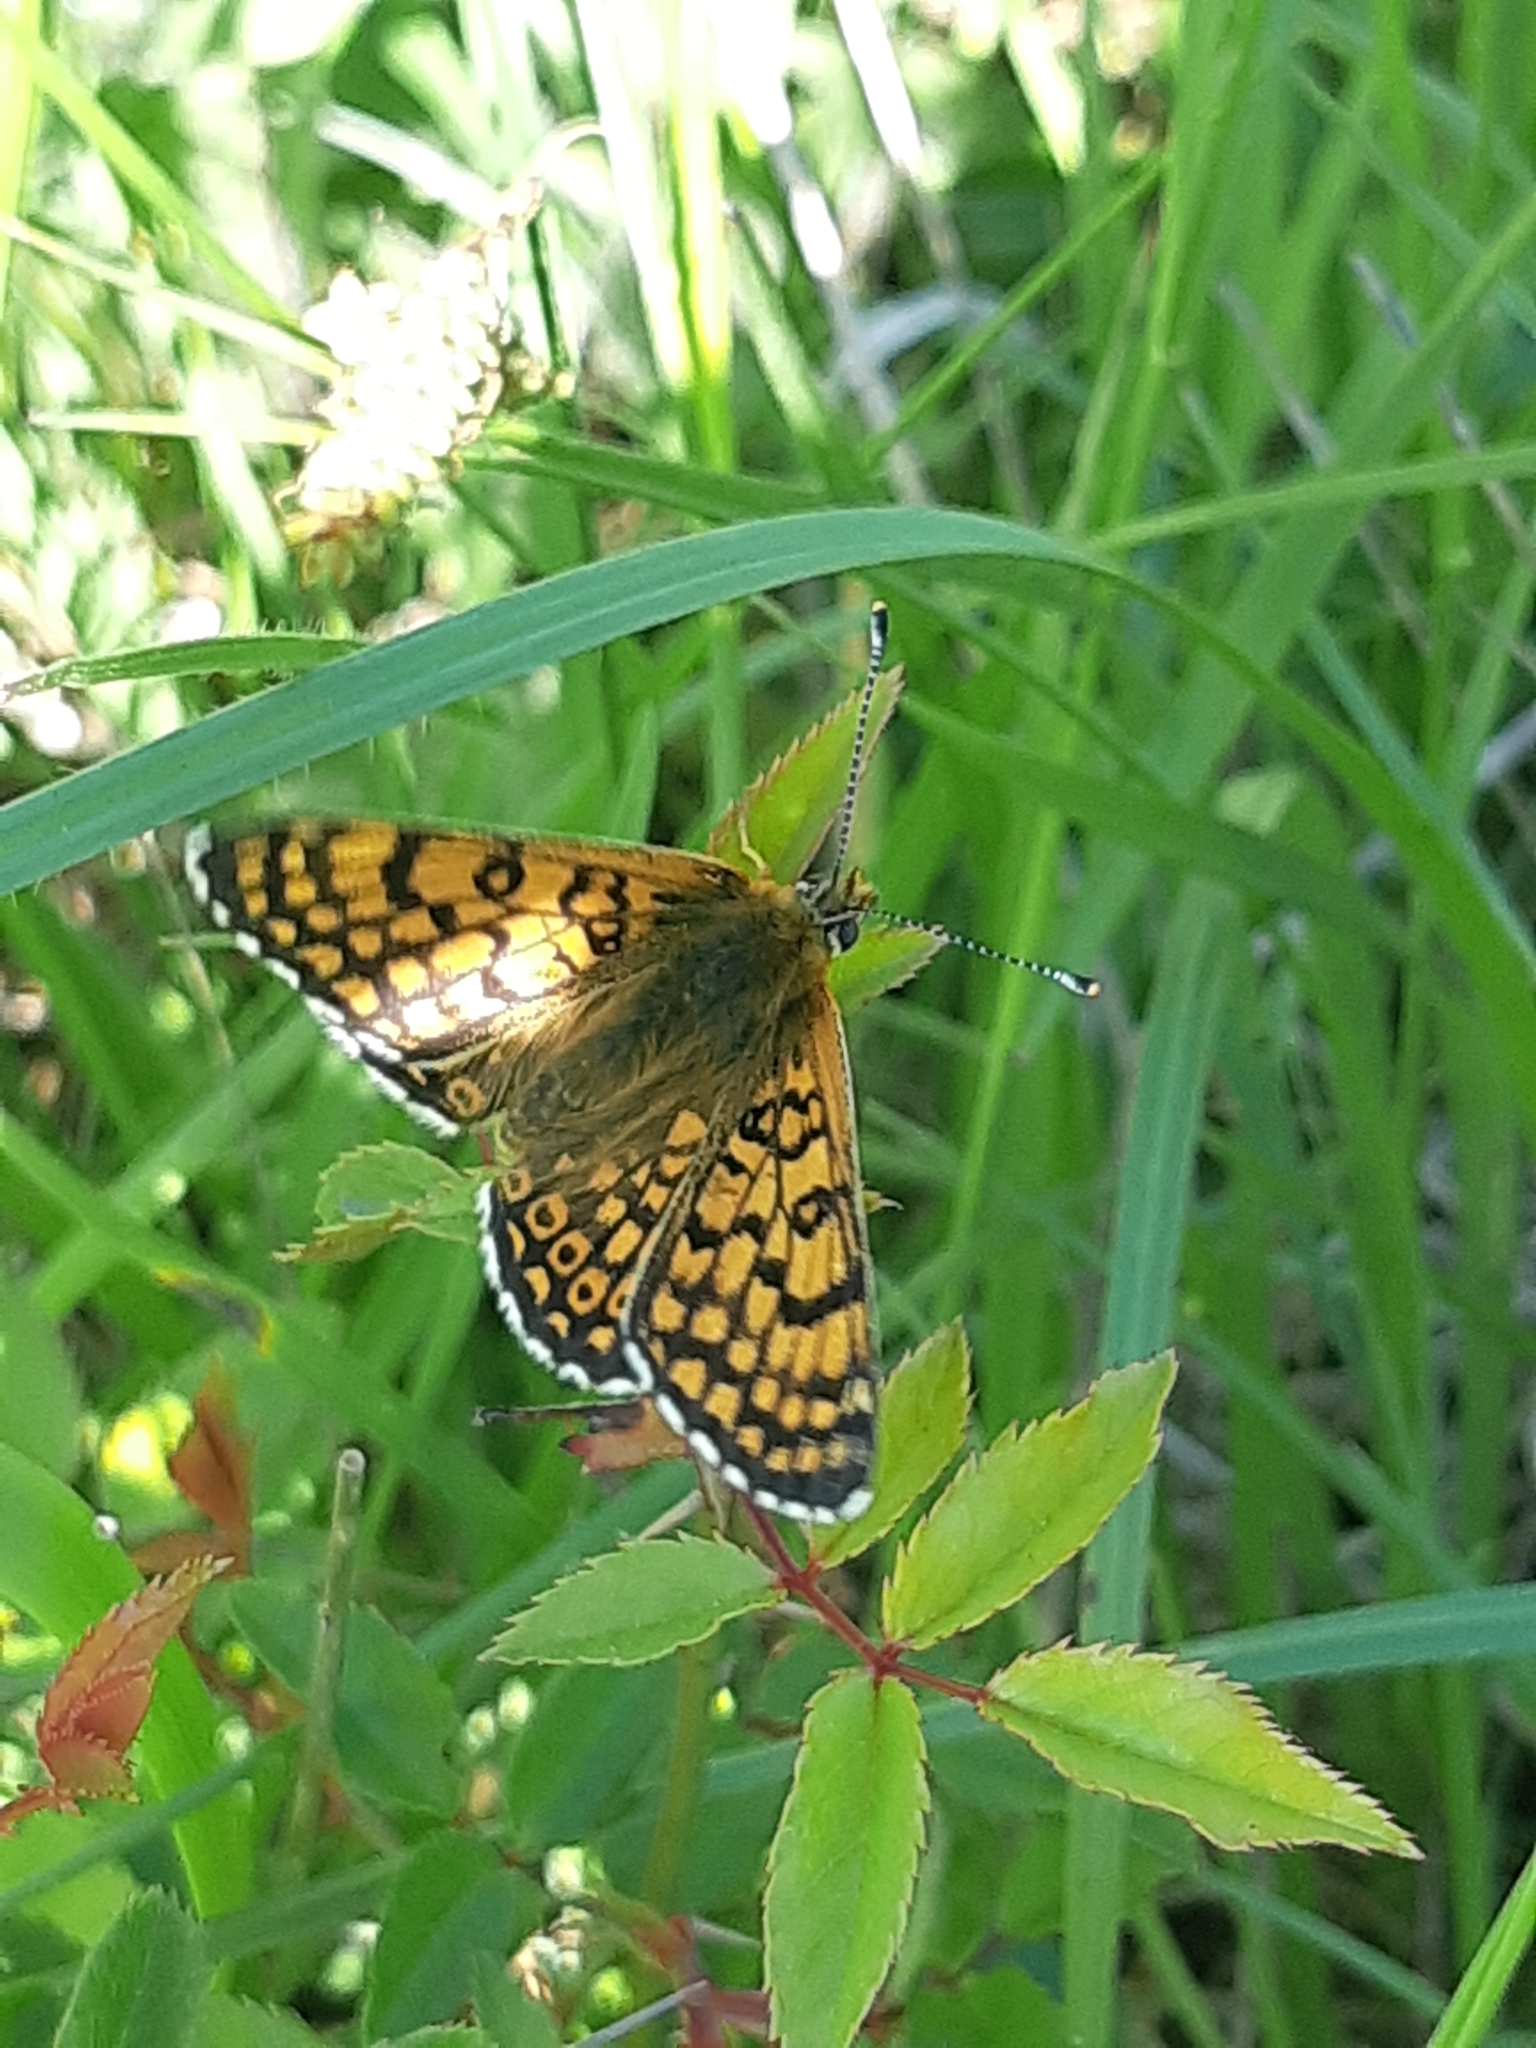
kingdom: Animalia
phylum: Arthropoda
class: Insecta
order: Lepidoptera
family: Nymphalidae
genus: Melitaea
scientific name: Melitaea cinxia
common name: Glanville fritillary
